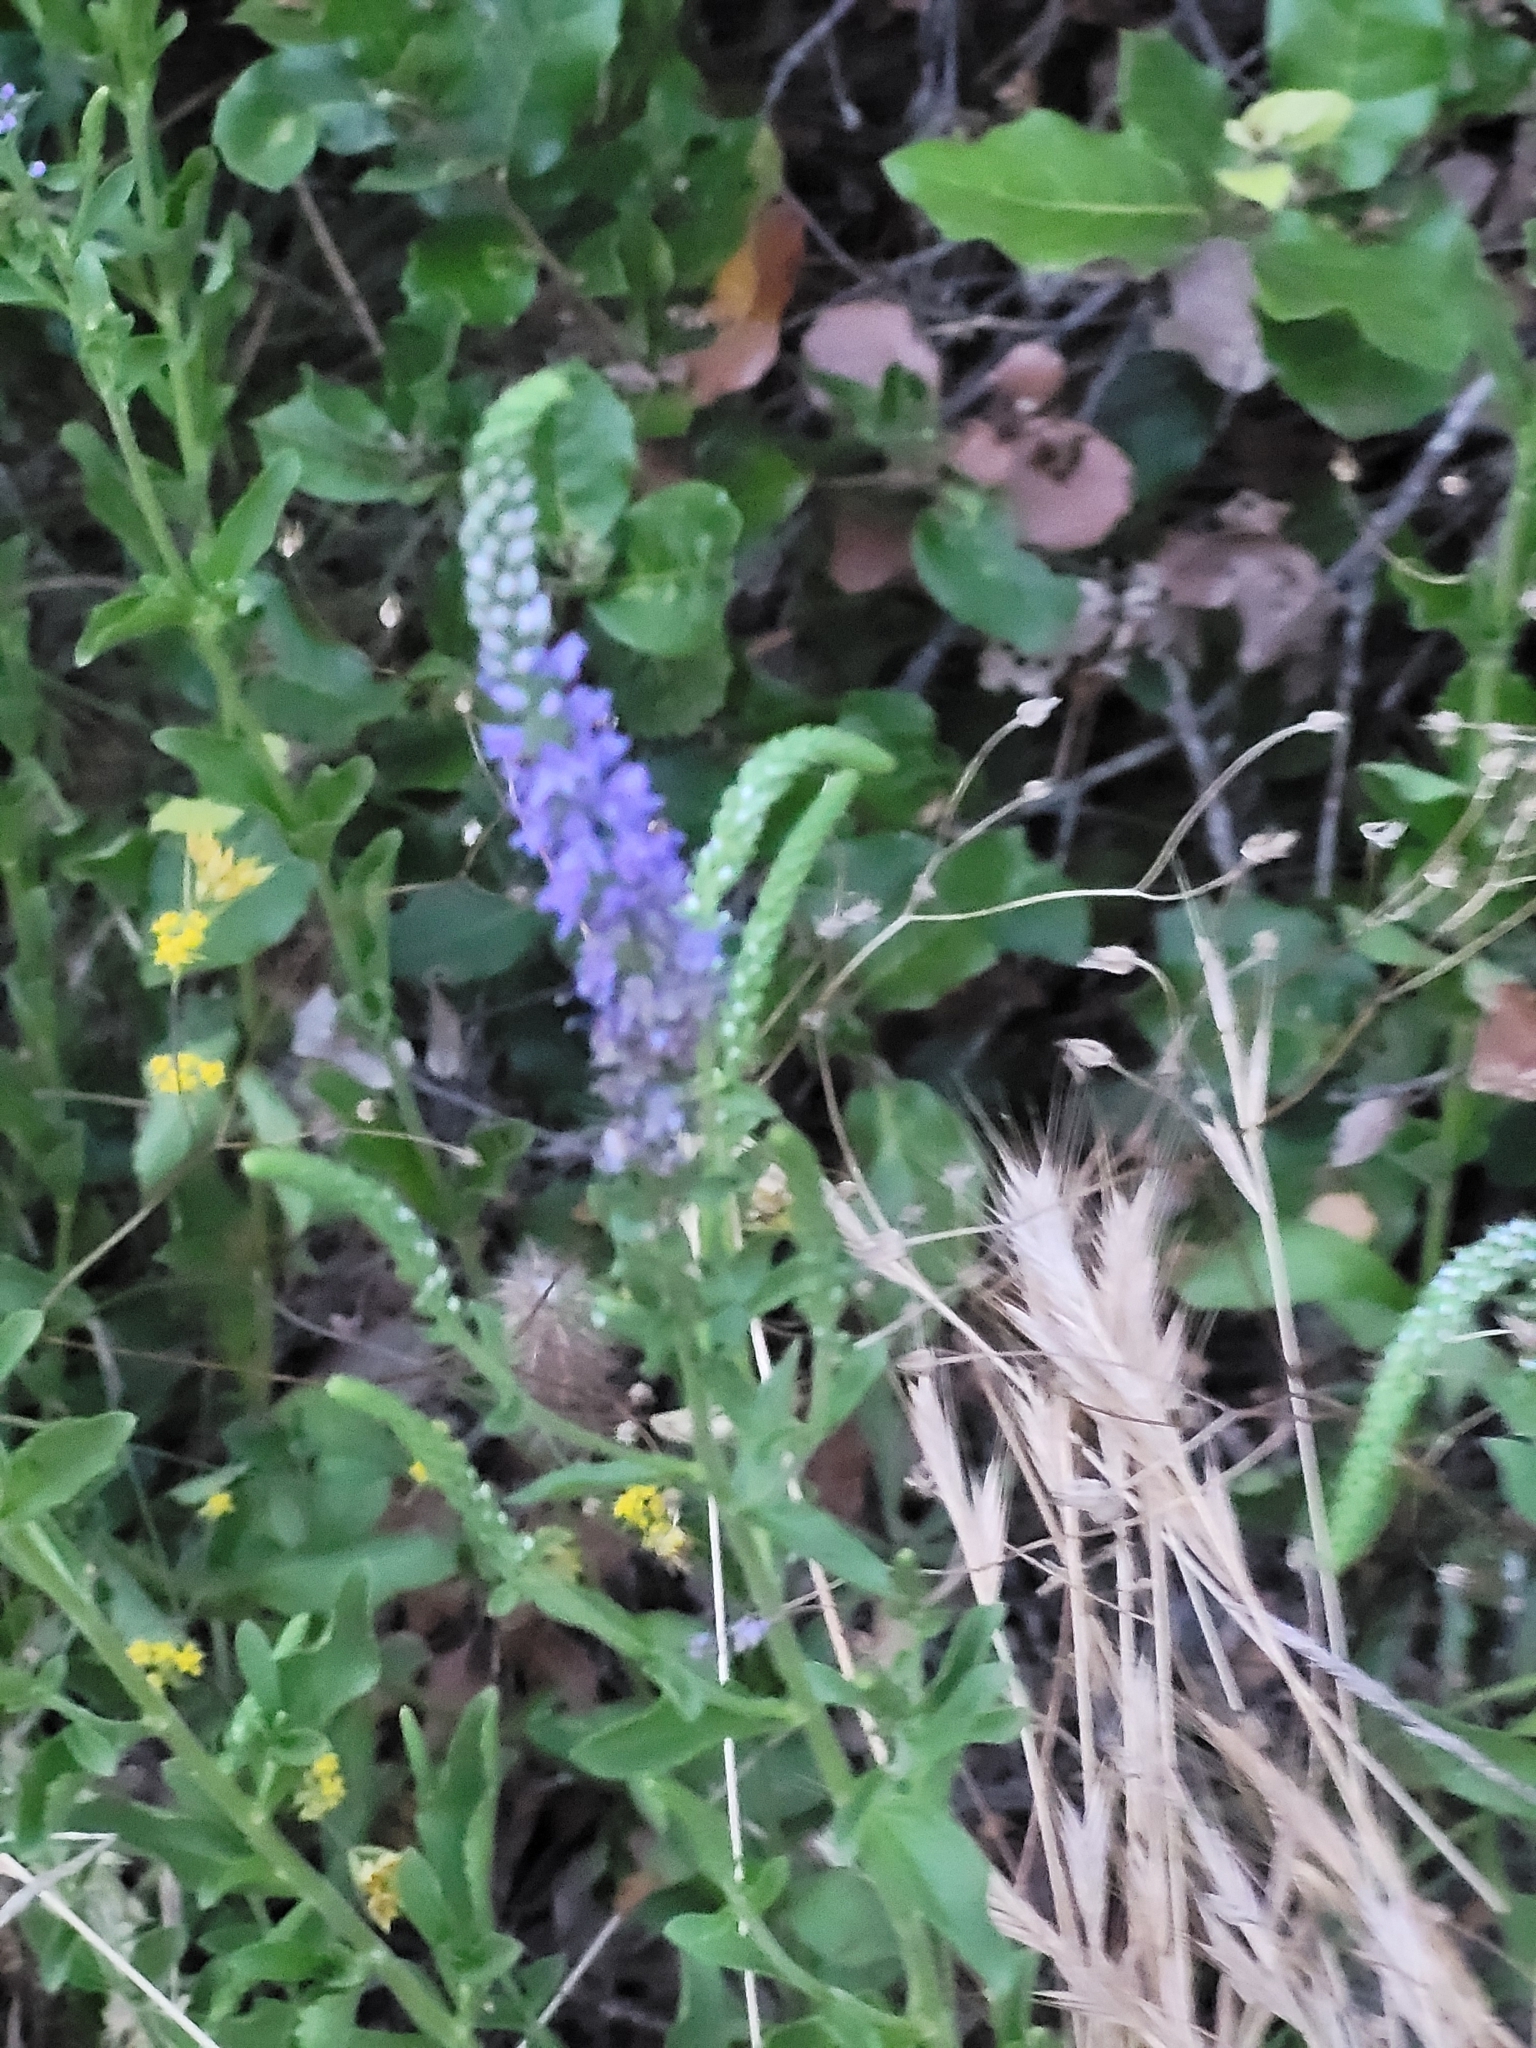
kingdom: Plantae
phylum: Tracheophyta
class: Magnoliopsida
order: Lamiales
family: Plantaginaceae
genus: Veronica
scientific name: Veronica barrelieri
